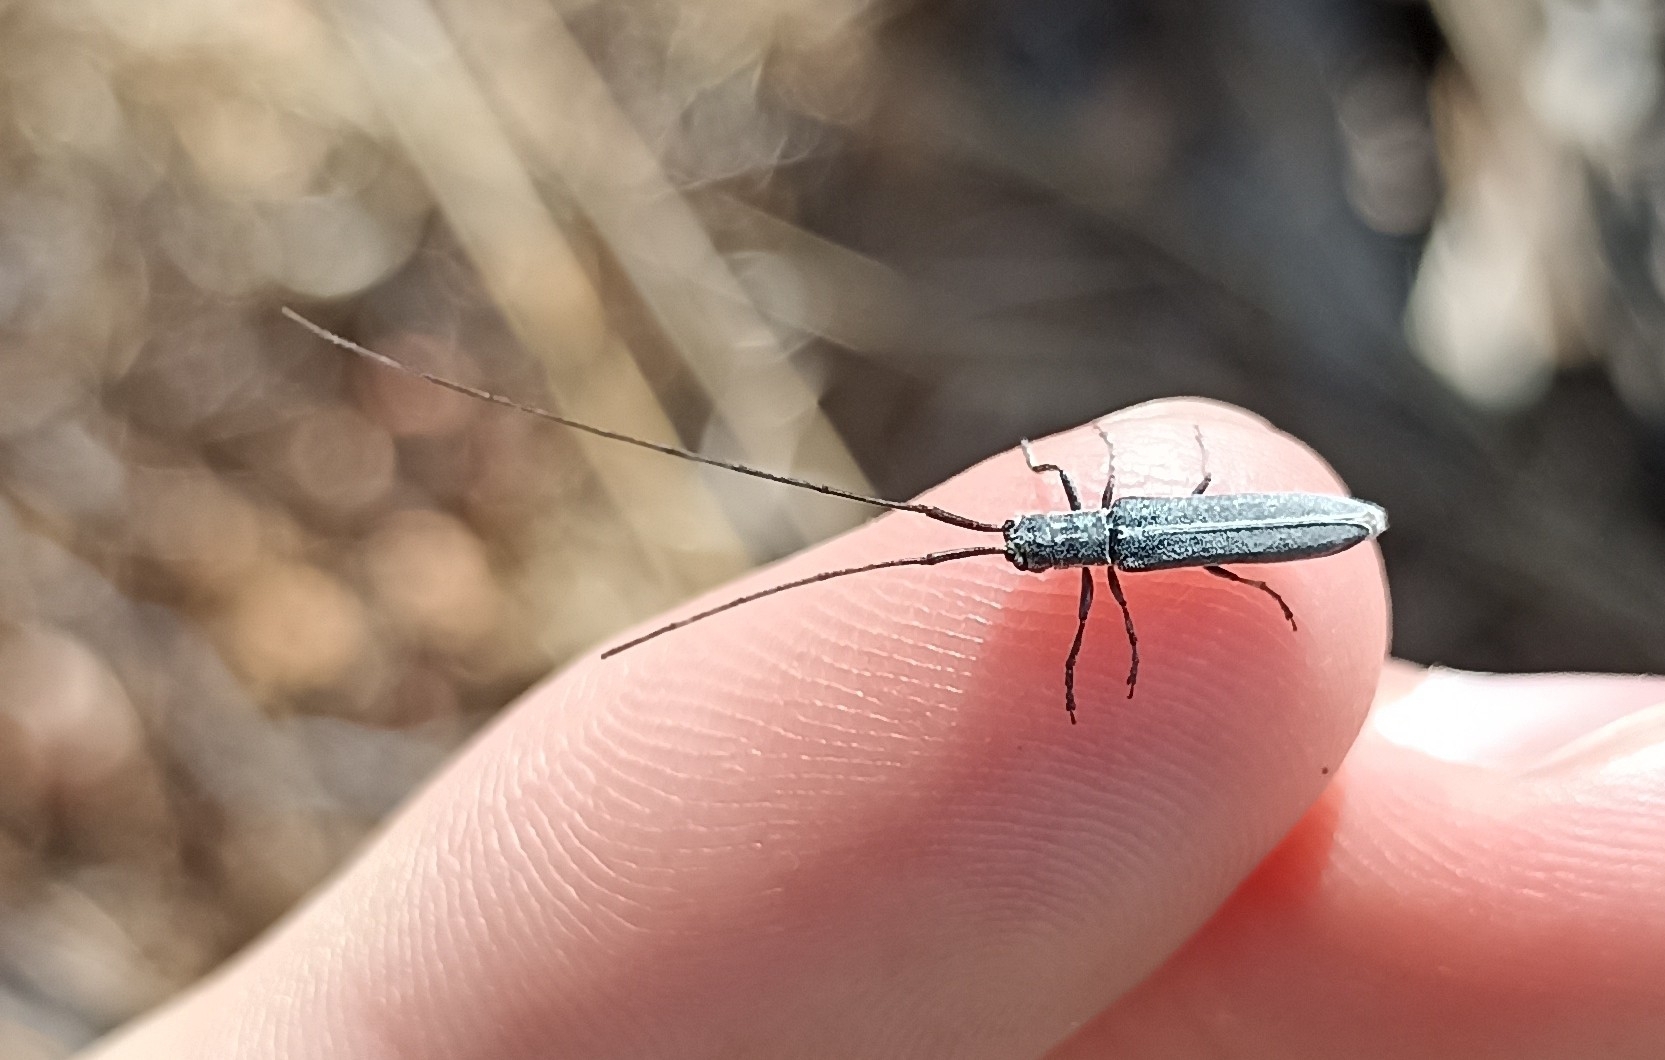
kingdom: Animalia
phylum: Arthropoda
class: Insecta
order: Coleoptera
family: Cerambycidae
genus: Calamobius
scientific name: Calamobius filum
